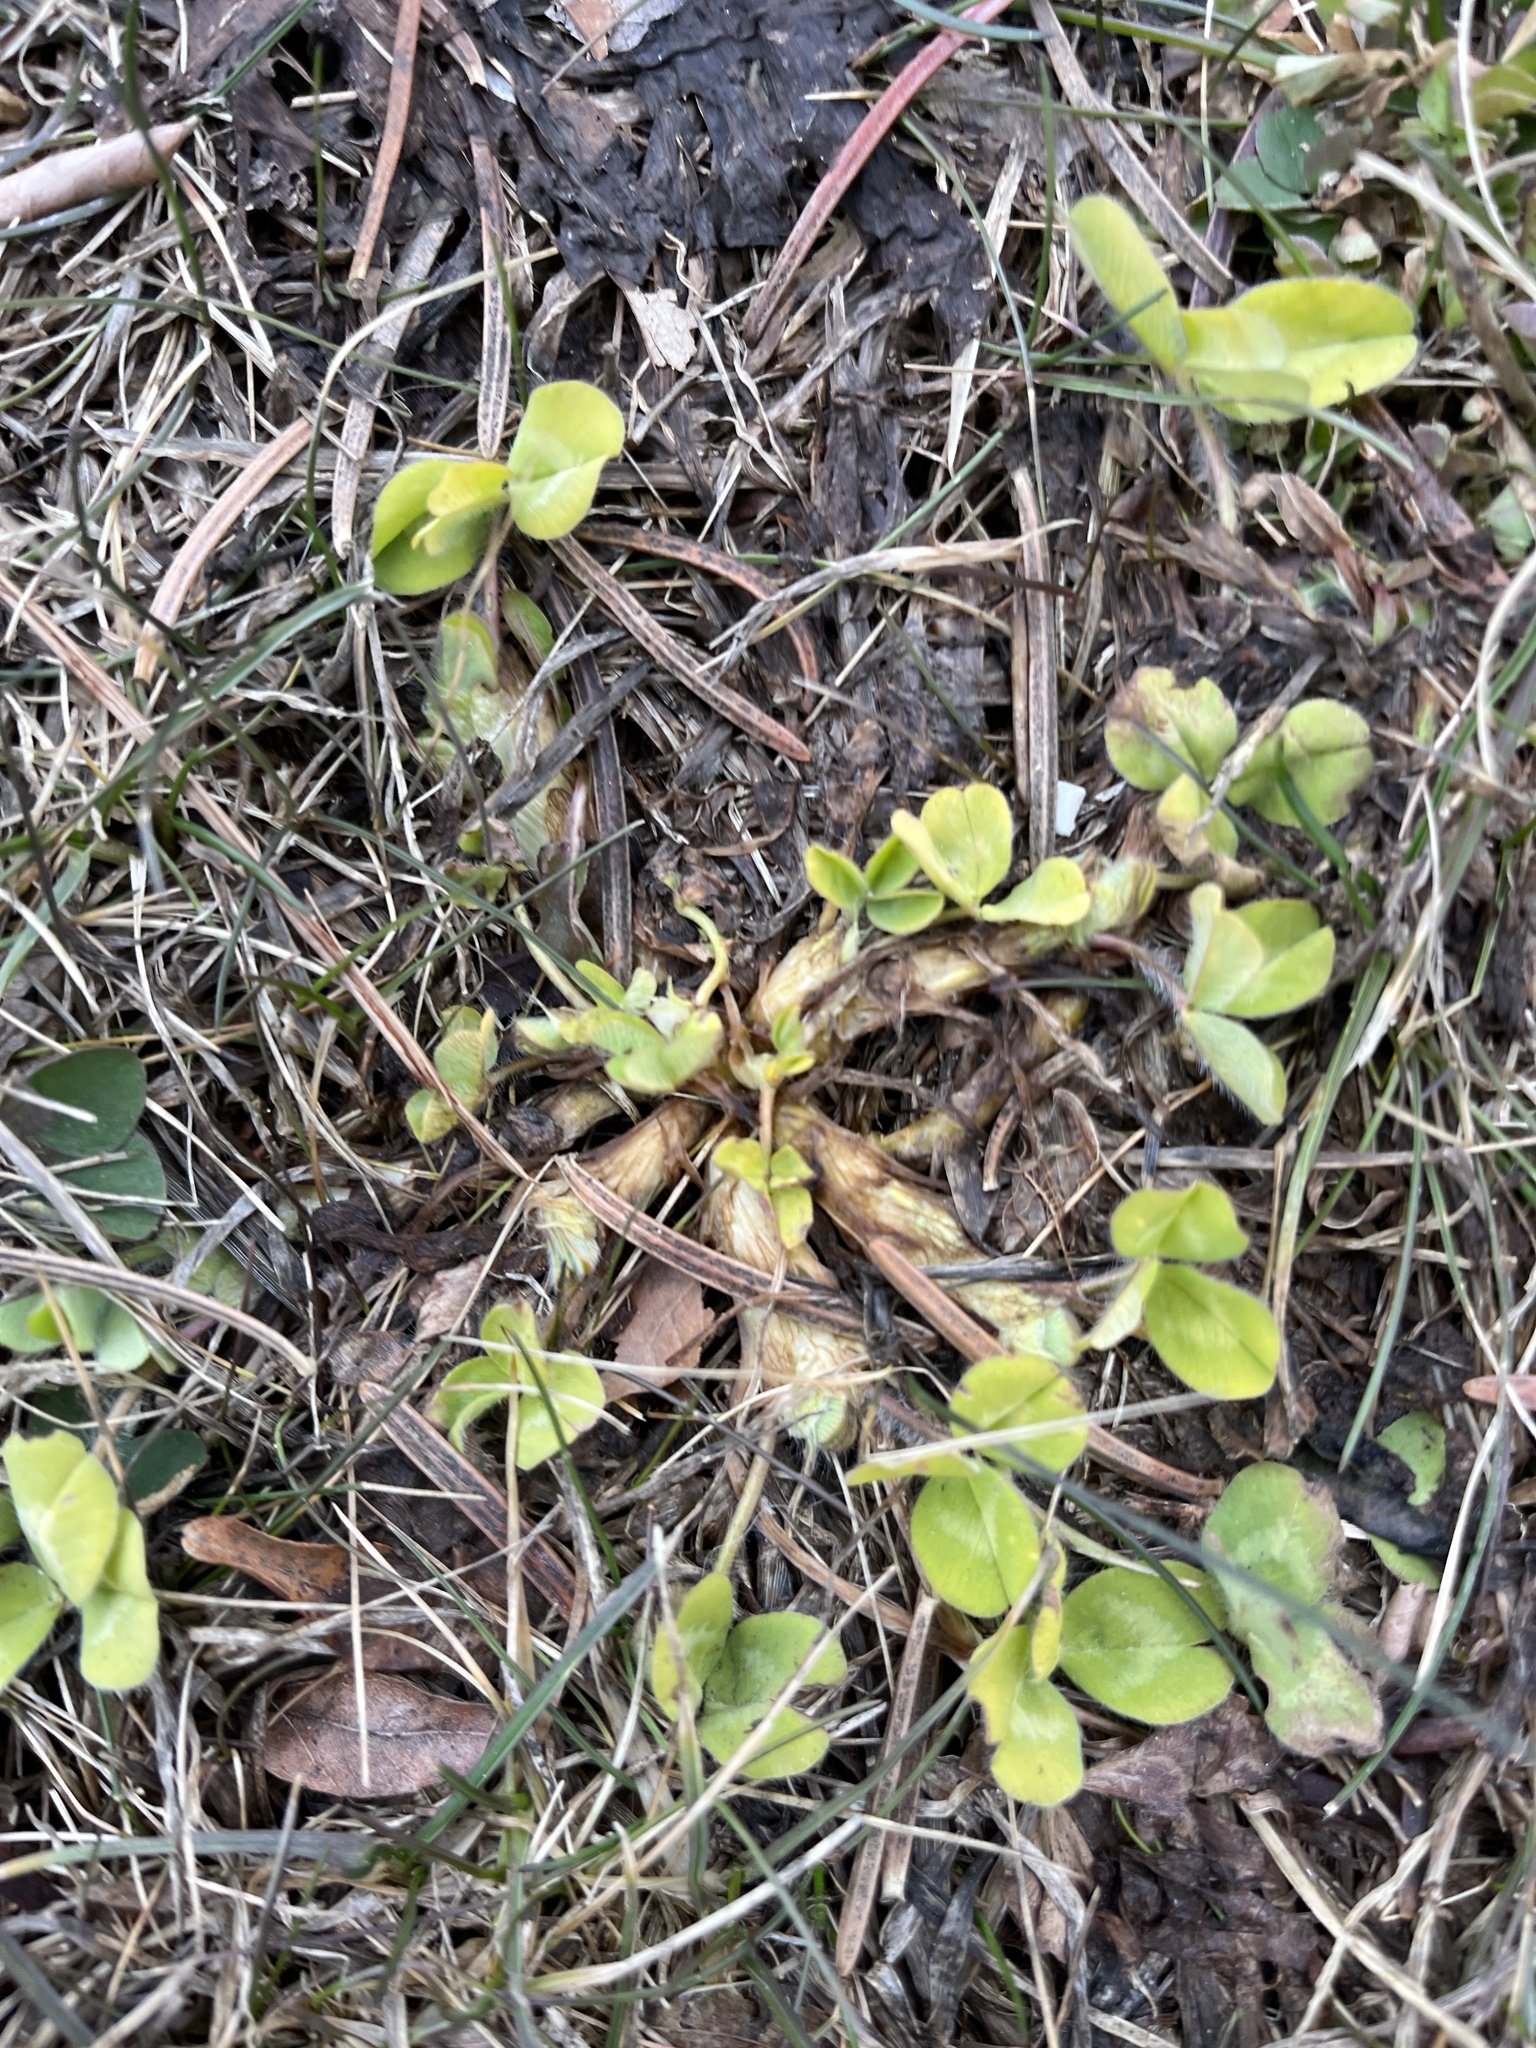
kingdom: Plantae
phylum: Tracheophyta
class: Magnoliopsida
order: Fabales
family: Fabaceae
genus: Trifolium
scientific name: Trifolium pratense
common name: Red clover
